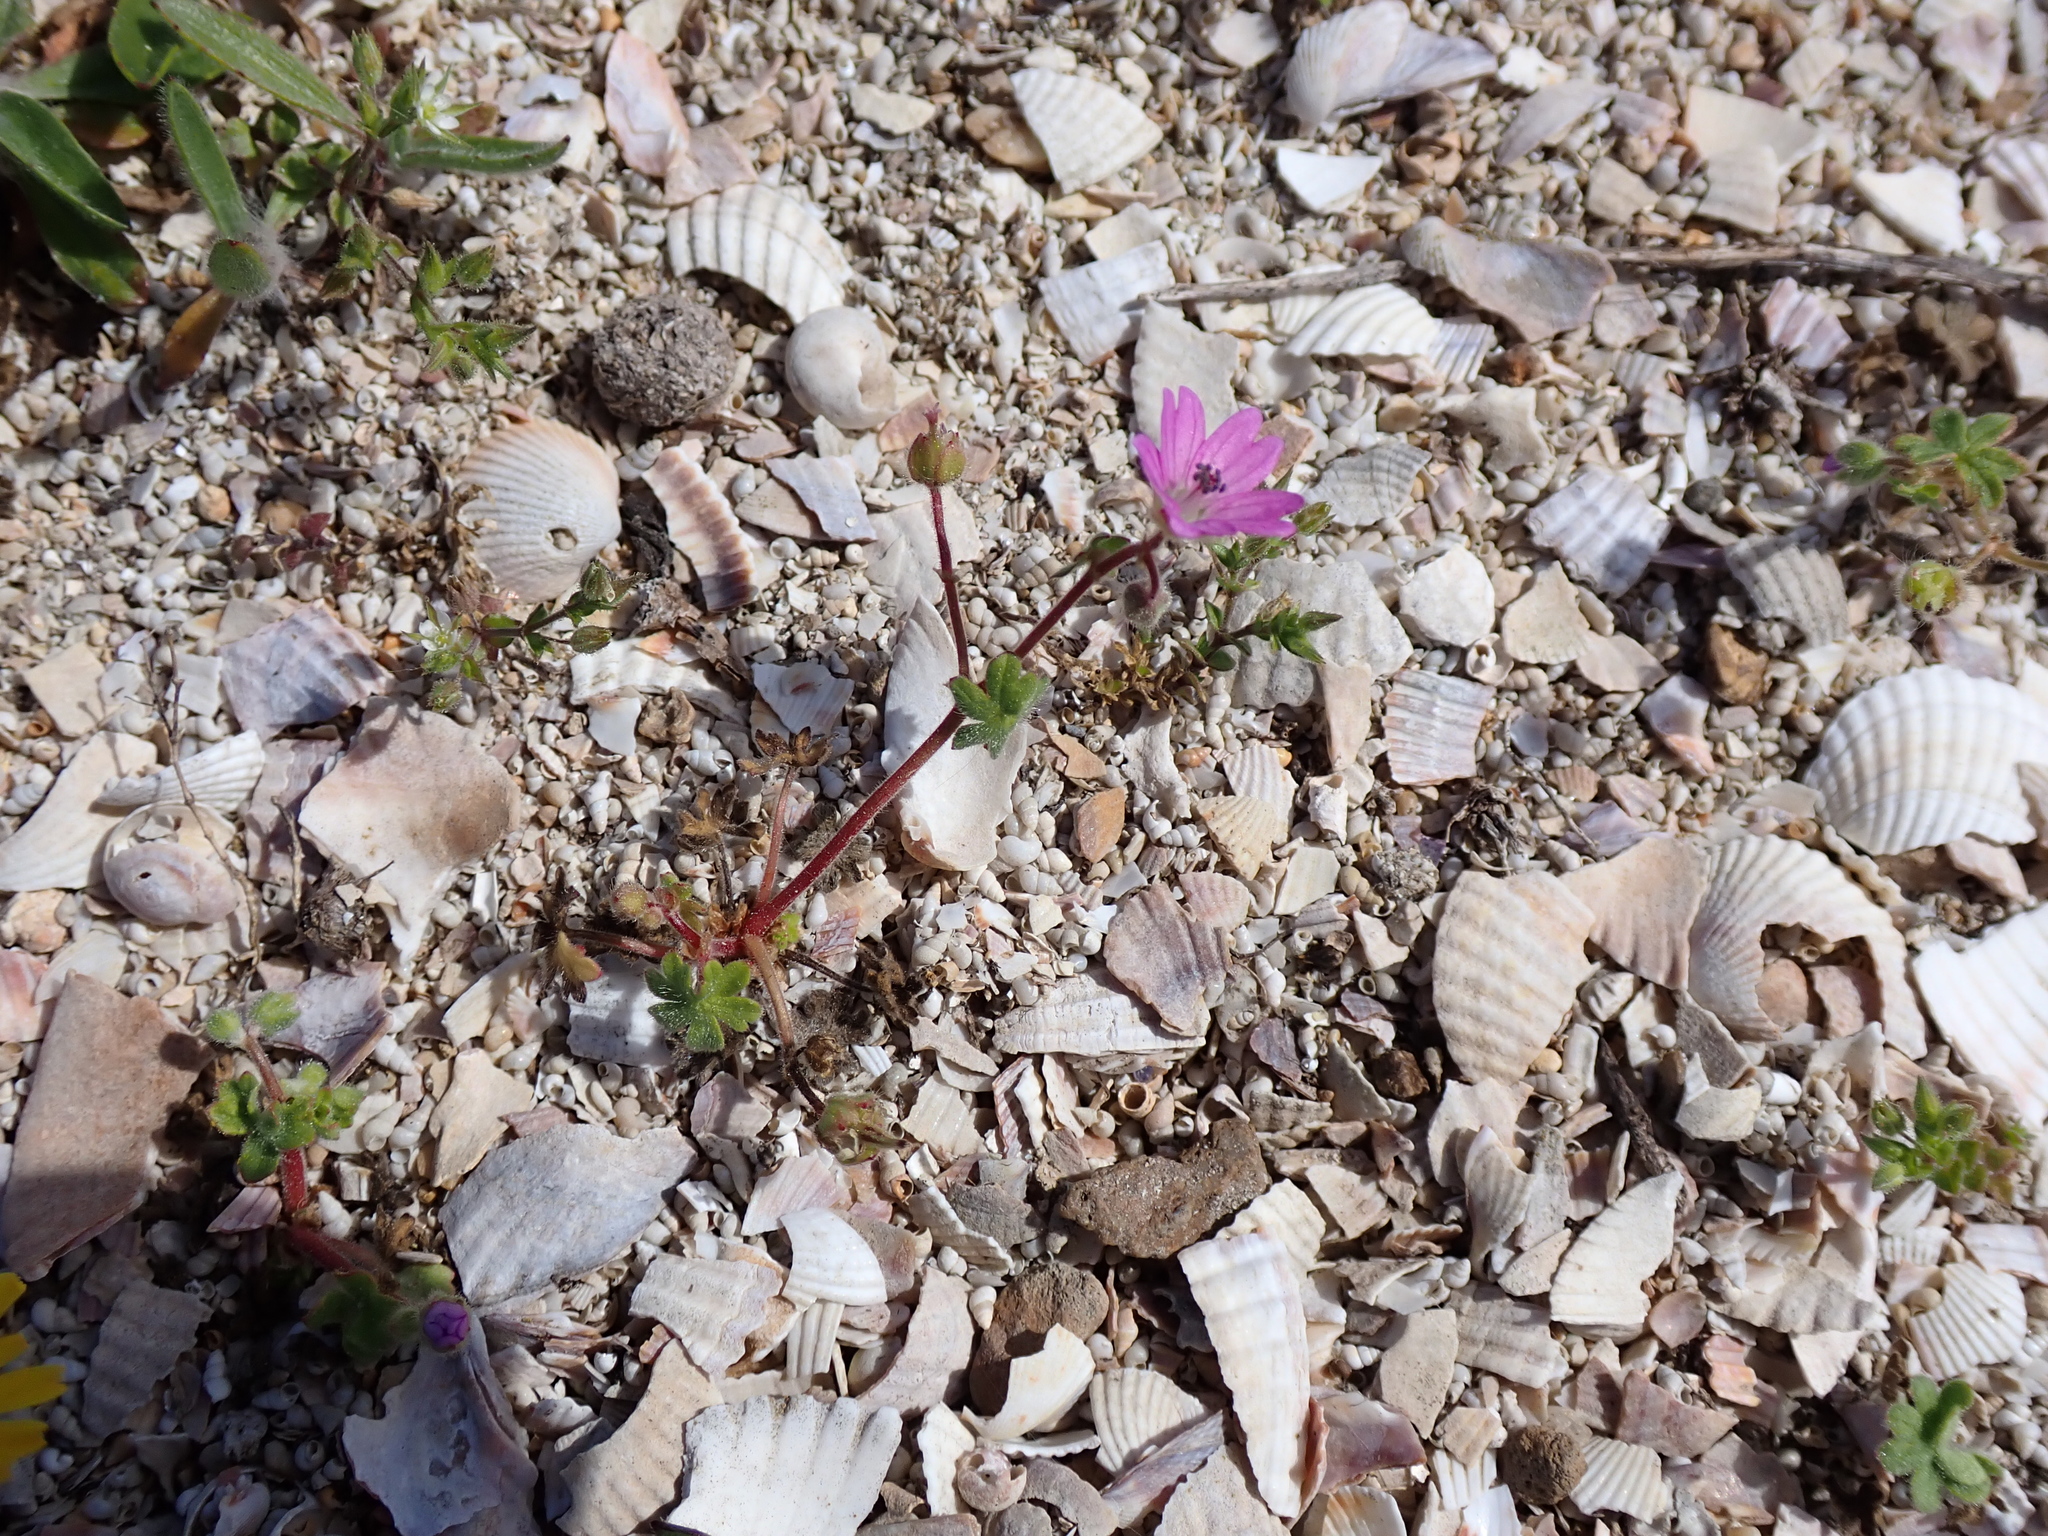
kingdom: Plantae
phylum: Tracheophyta
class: Magnoliopsida
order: Geraniales
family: Geraniaceae
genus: Geranium
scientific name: Geranium rotundifolium
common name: Round-leaved crane's-bill
